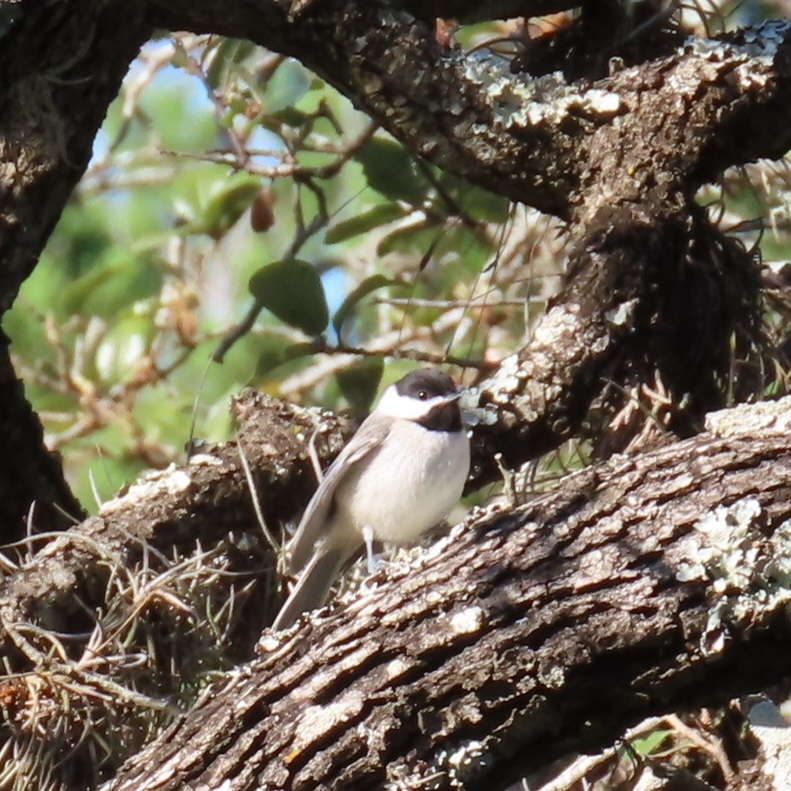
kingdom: Animalia
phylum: Chordata
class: Aves
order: Passeriformes
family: Paridae
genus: Poecile
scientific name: Poecile carolinensis
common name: Carolina chickadee
